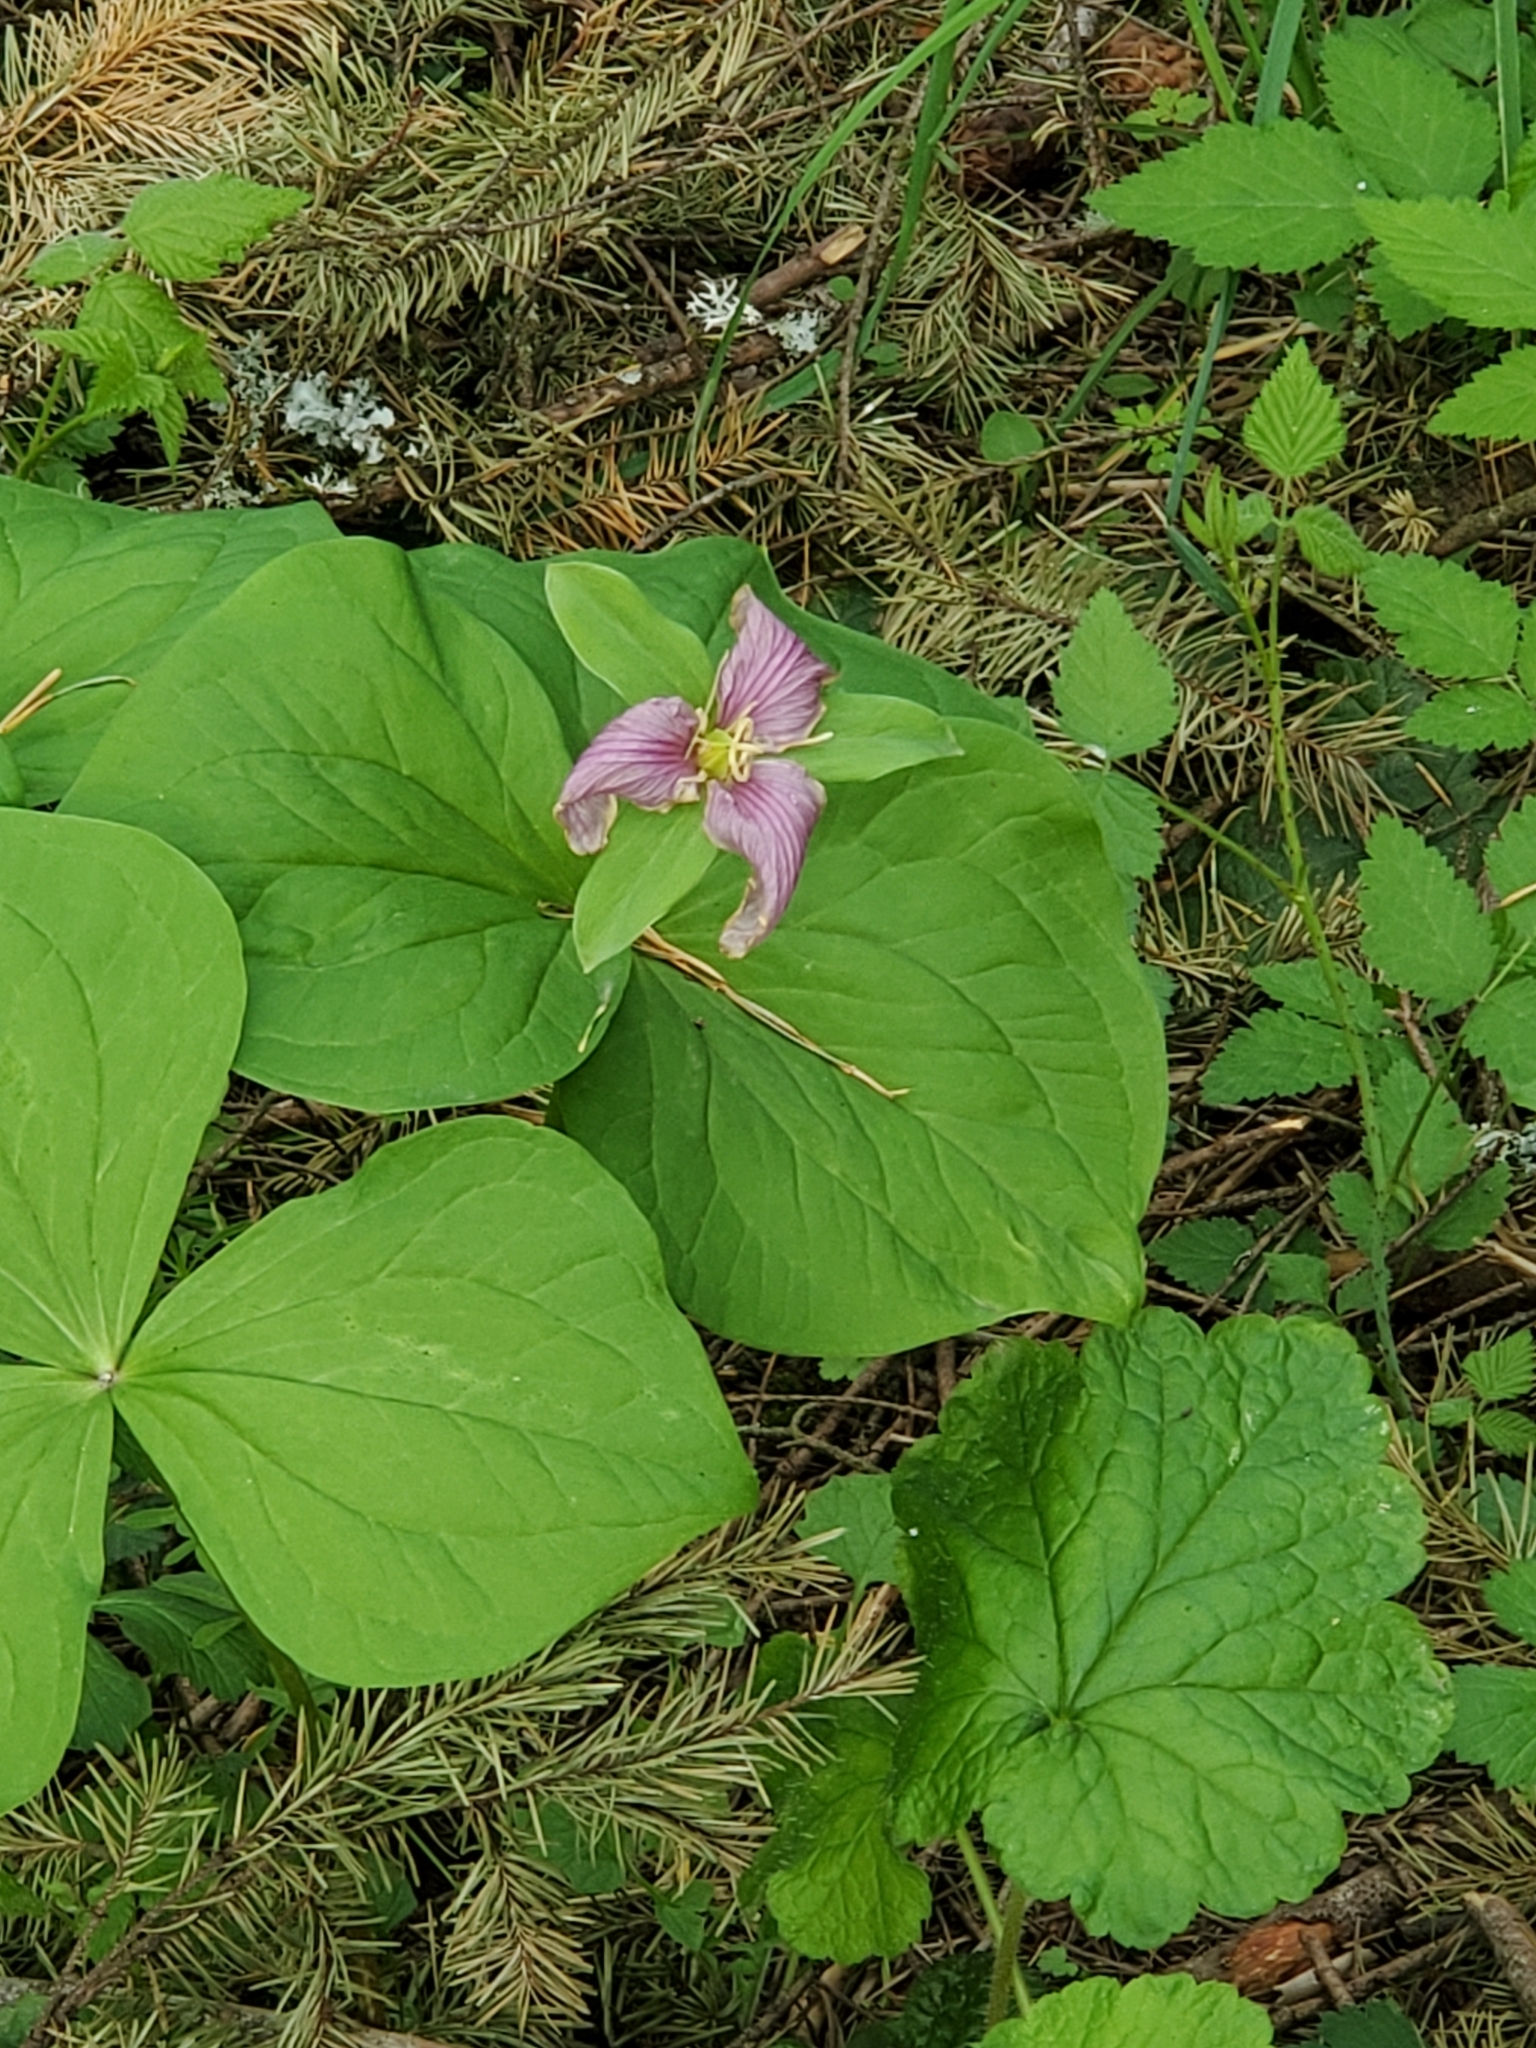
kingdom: Plantae
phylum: Tracheophyta
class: Liliopsida
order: Liliales
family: Melanthiaceae
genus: Trillium
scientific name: Trillium ovatum
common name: Pacific trillium
